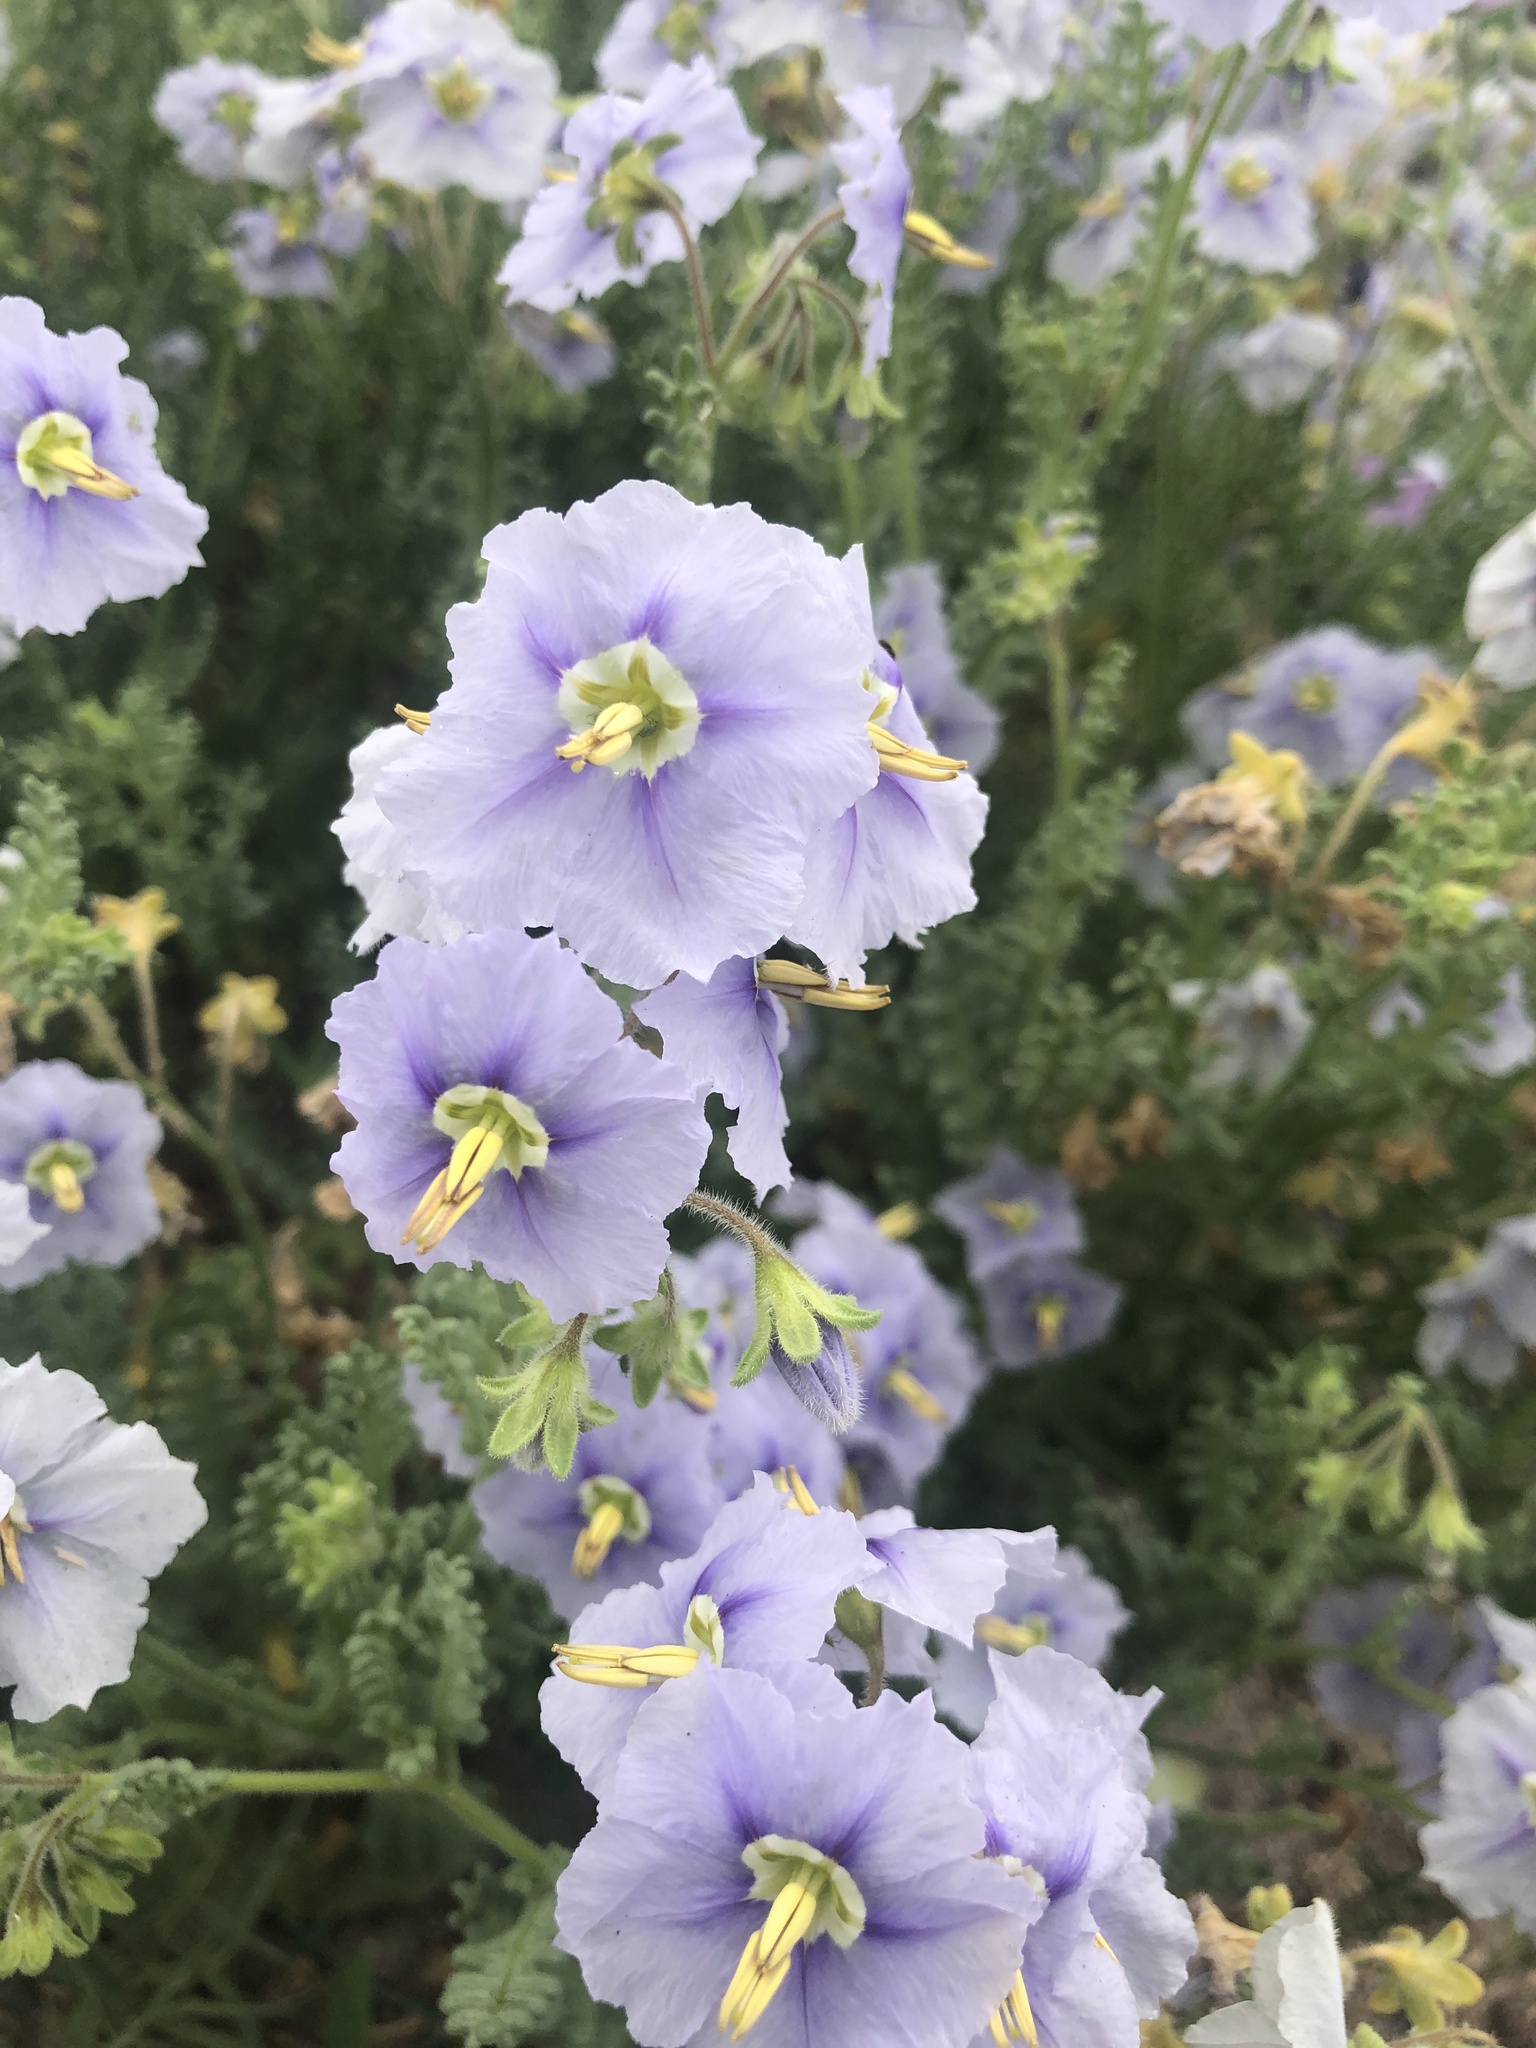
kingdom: Plantae
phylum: Tracheophyta
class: Magnoliopsida
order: Solanales
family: Solanaceae
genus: Solanum
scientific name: Solanum trinominum
